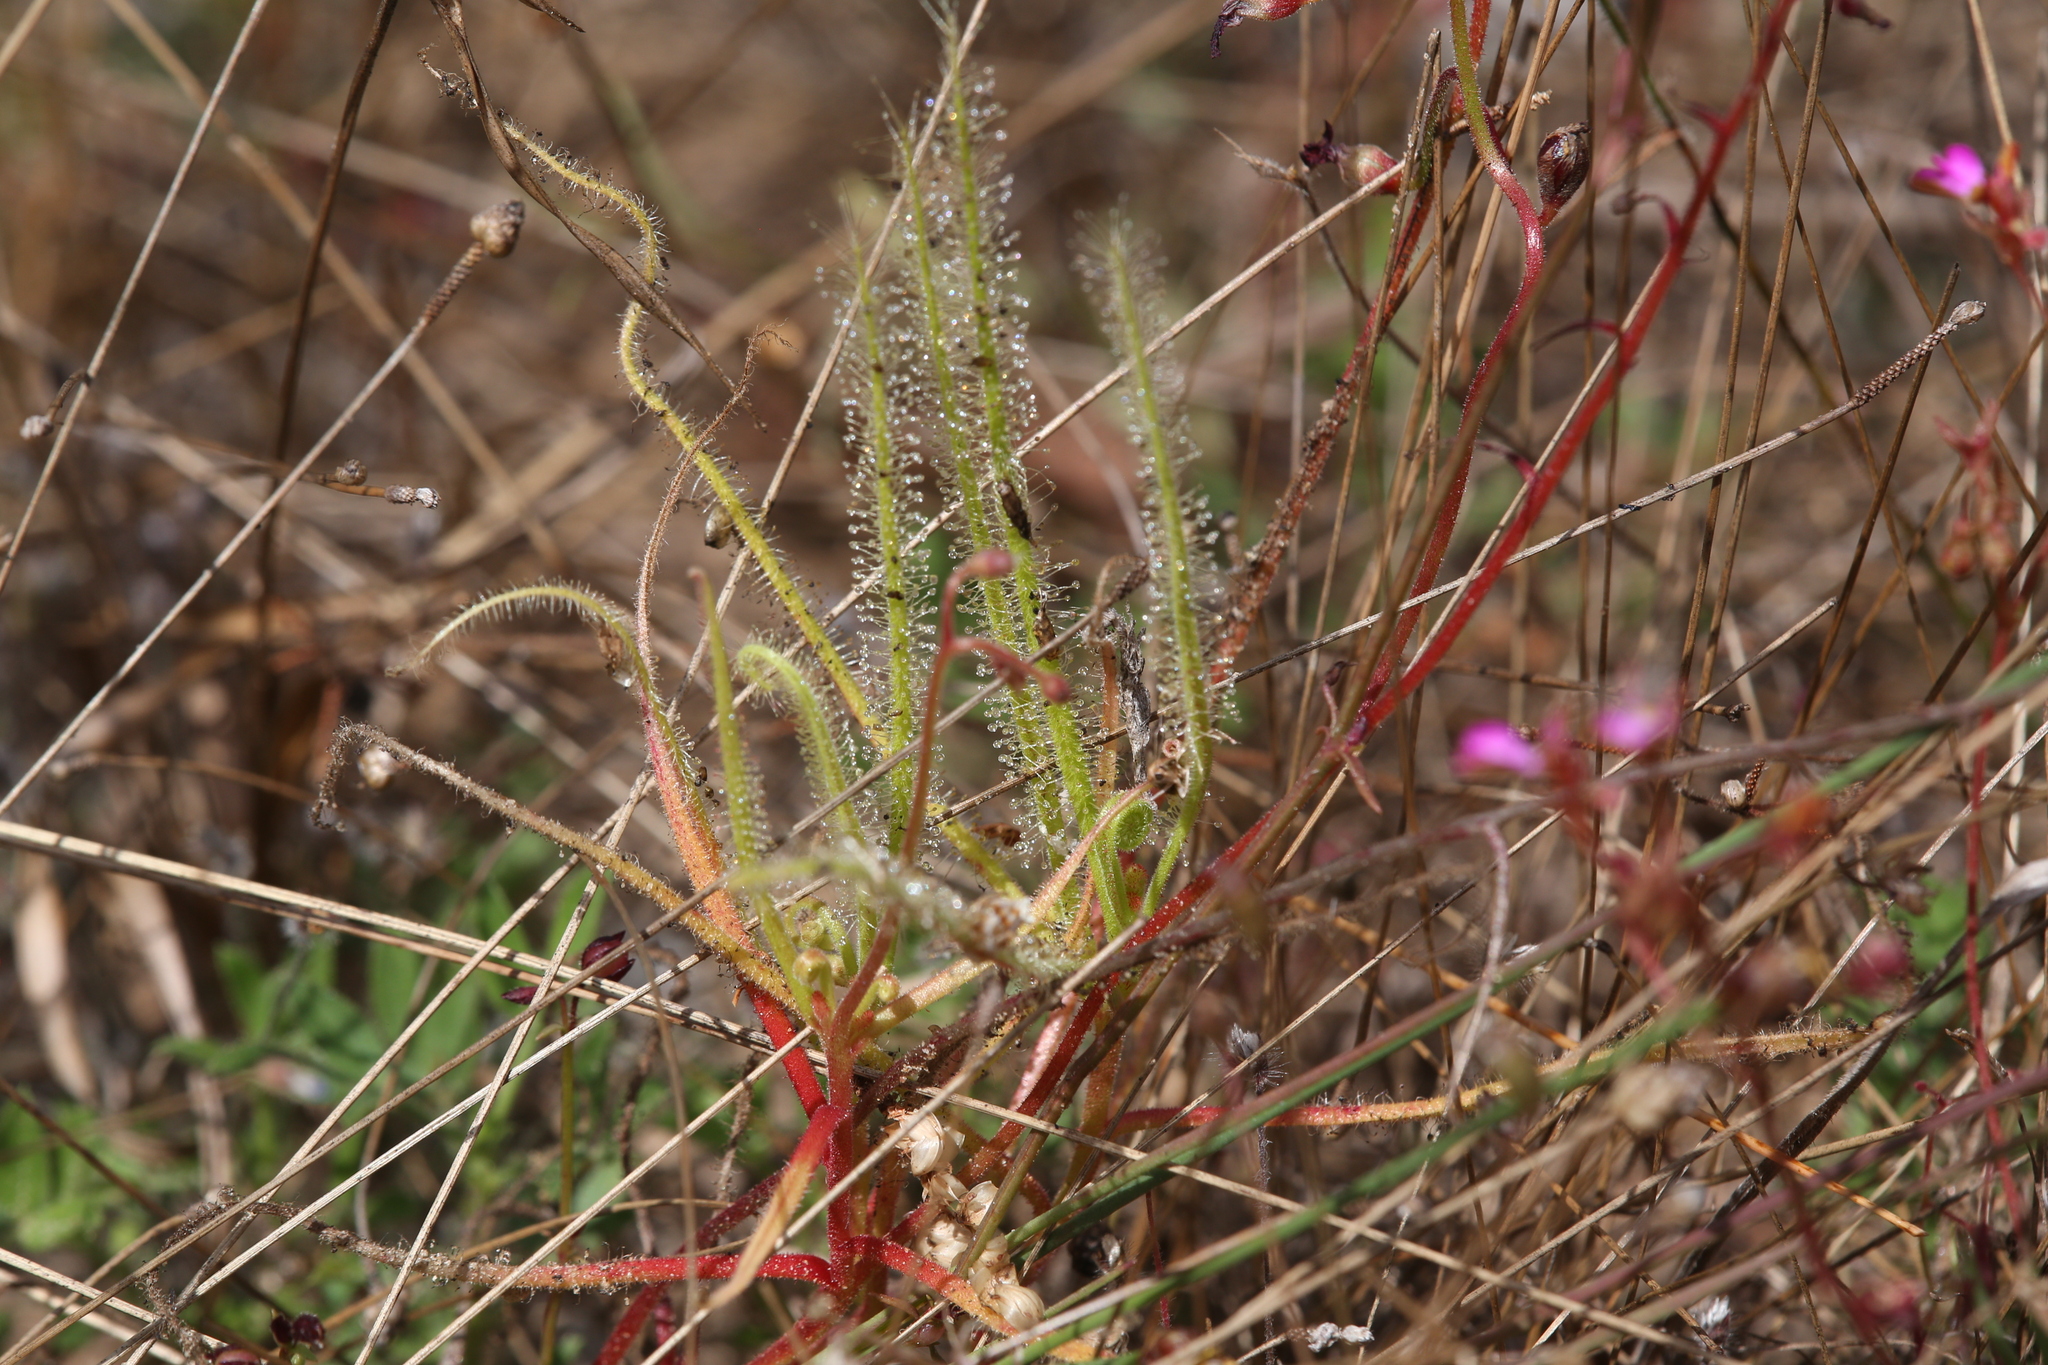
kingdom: Plantae
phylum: Tracheophyta
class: Magnoliopsida
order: Caryophyllales
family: Droseraceae
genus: Drosera
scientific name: Drosera fragrans
